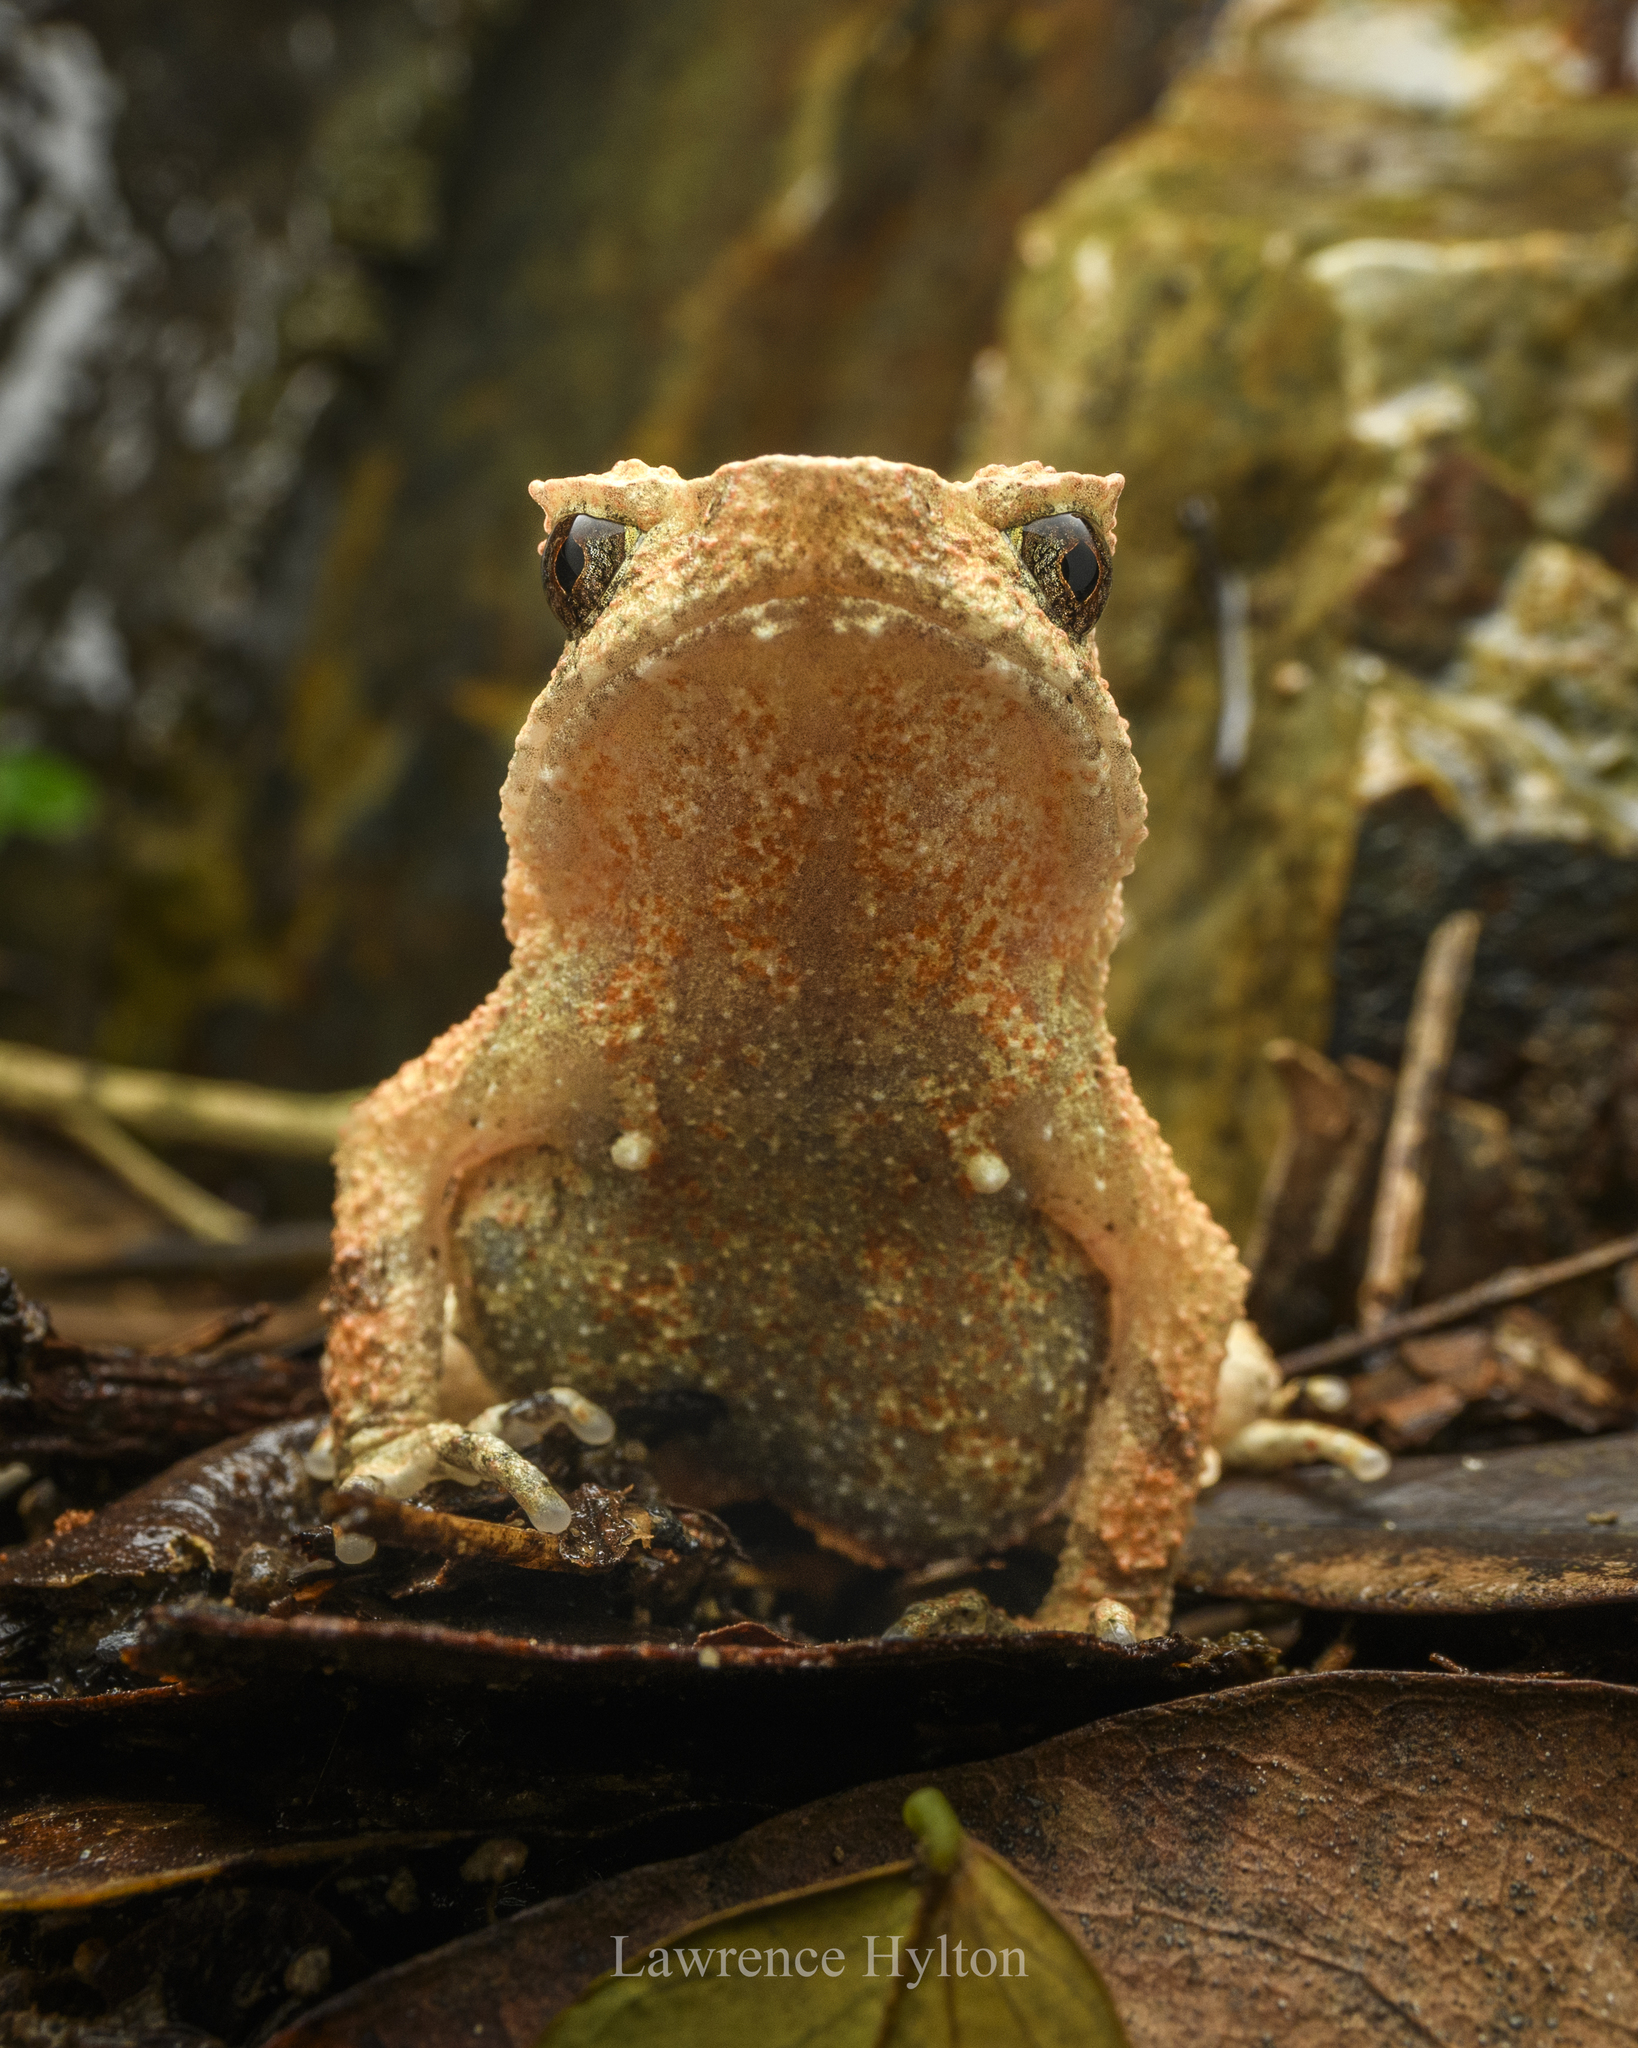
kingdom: Animalia
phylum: Chordata
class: Amphibia
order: Anura
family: Megophryidae
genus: Megophrys
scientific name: Megophrys brachykolos
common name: Short-legged horned toad
